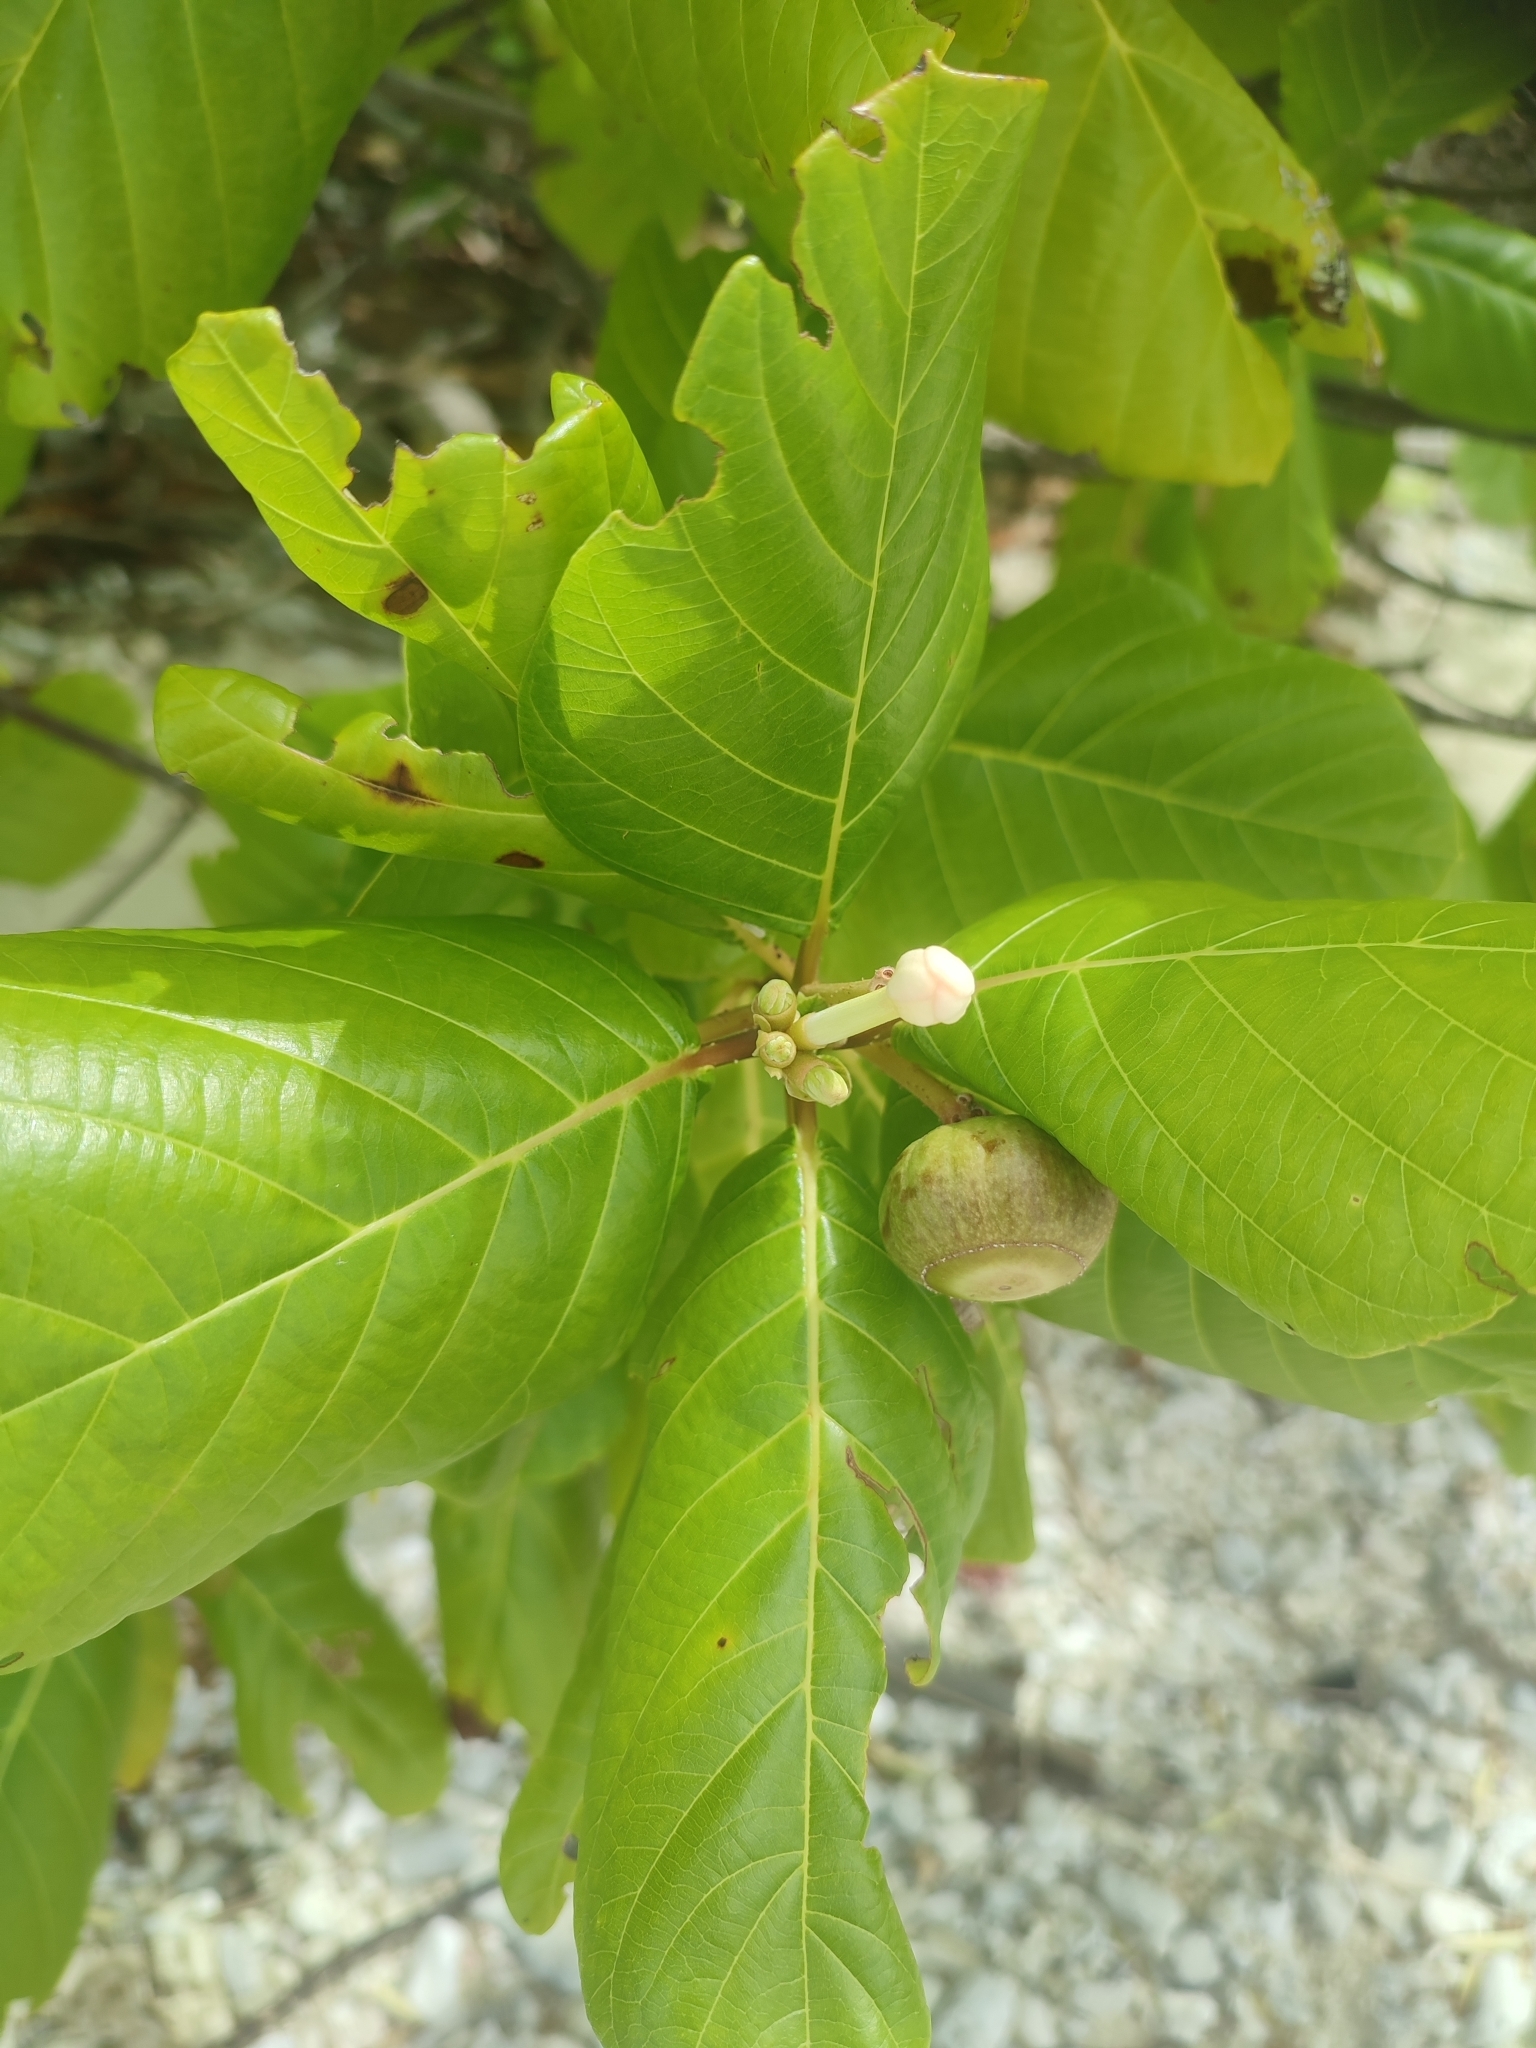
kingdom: Plantae
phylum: Tracheophyta
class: Magnoliopsida
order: Gentianales
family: Rubiaceae
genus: Guettarda
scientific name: Guettarda speciosa
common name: Sea randa
